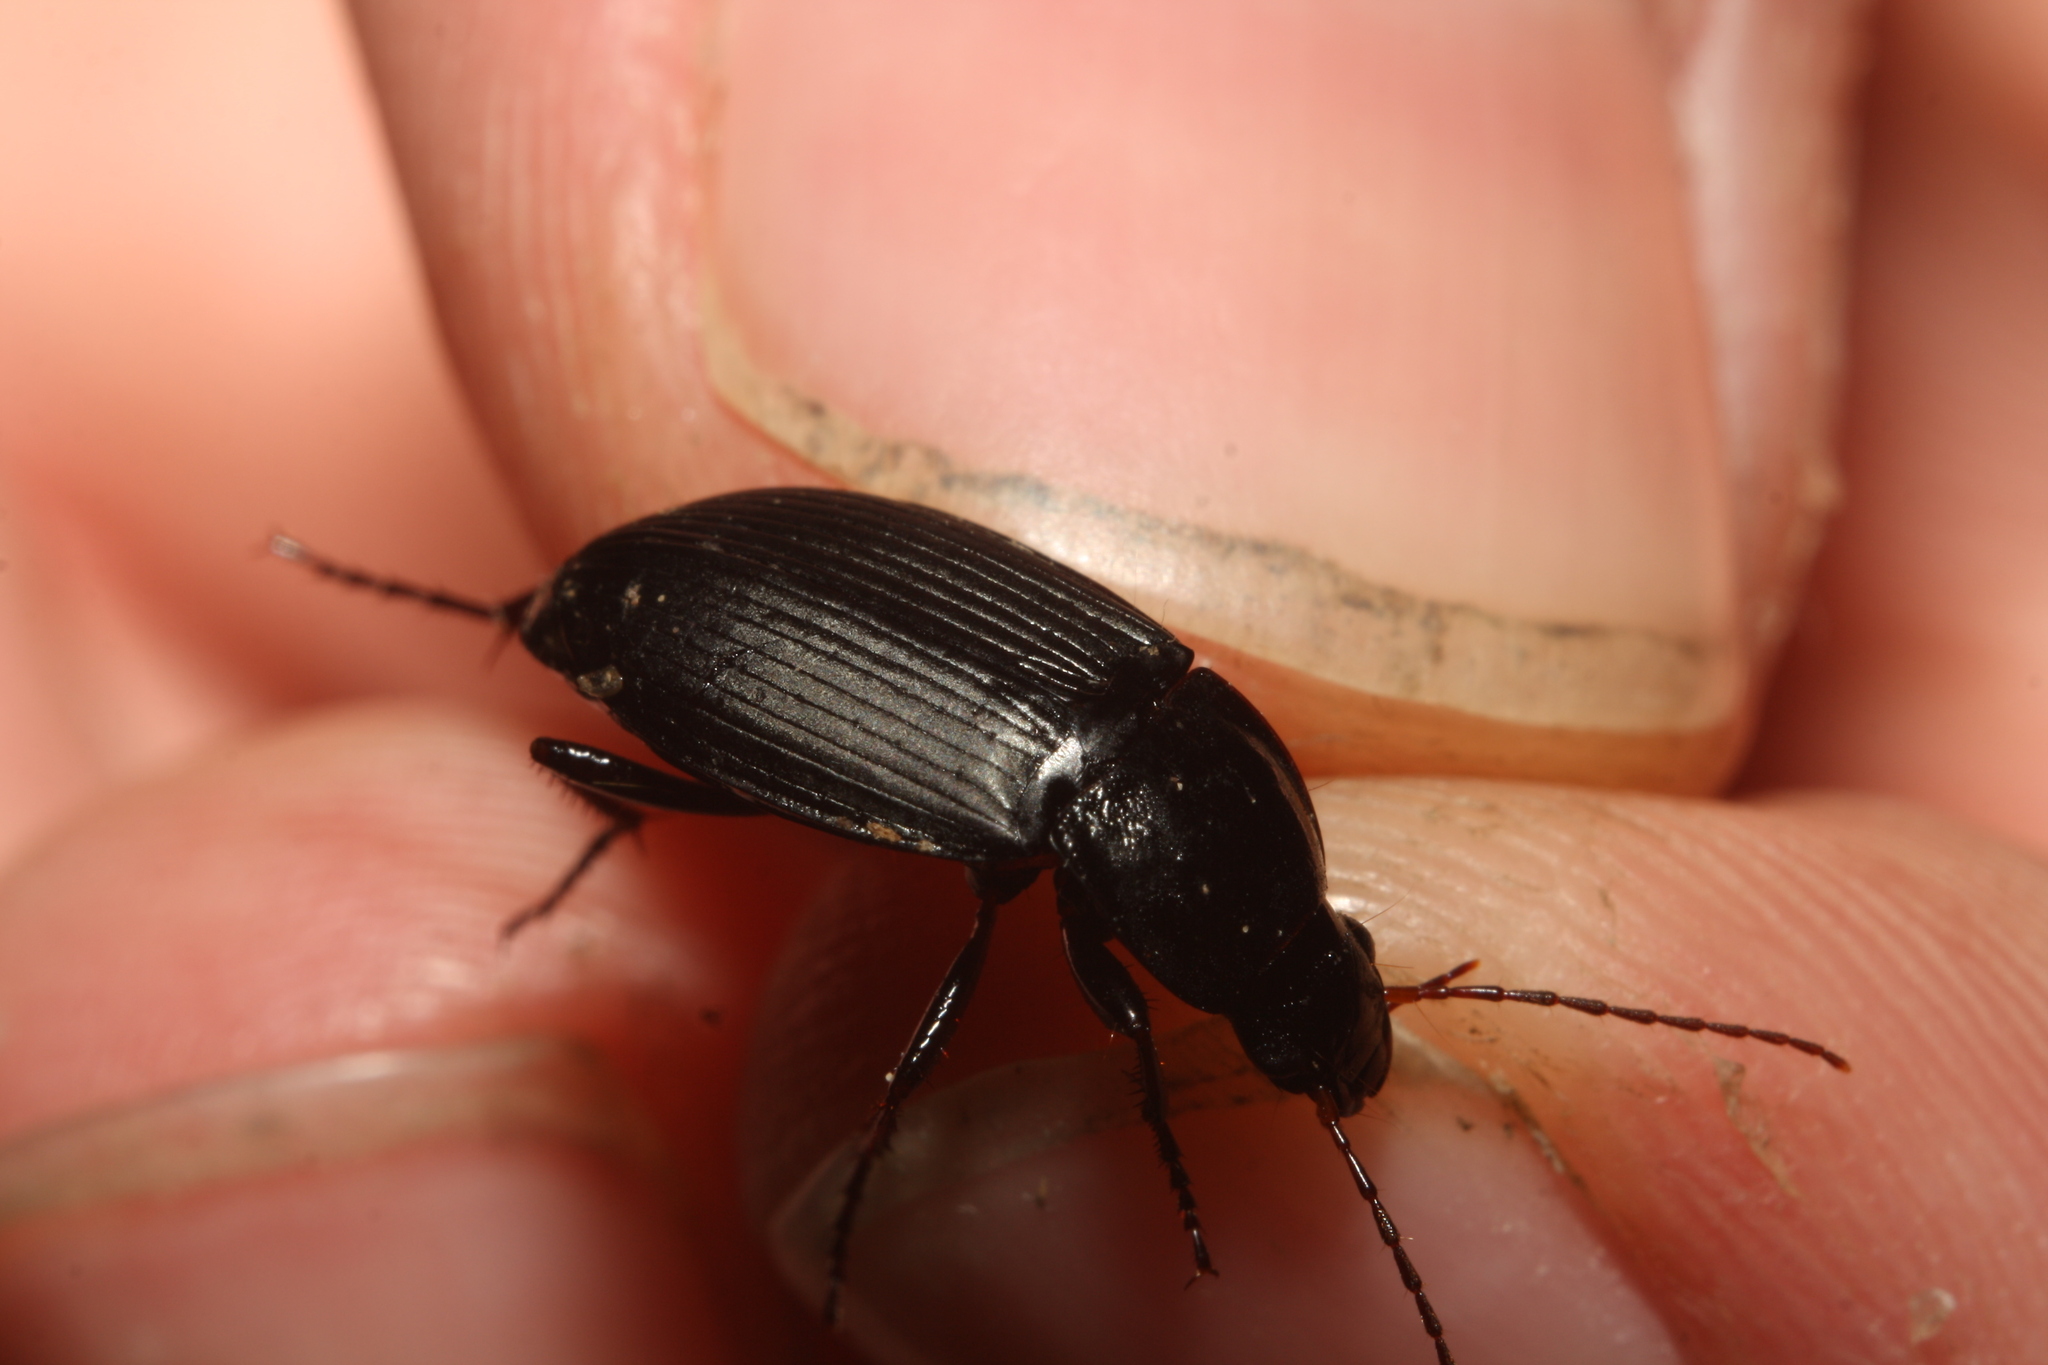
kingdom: Animalia
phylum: Arthropoda
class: Insecta
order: Coleoptera
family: Carabidae
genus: Calathus
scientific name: Calathus fuscipes
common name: Dark-footed harp ground beetle
